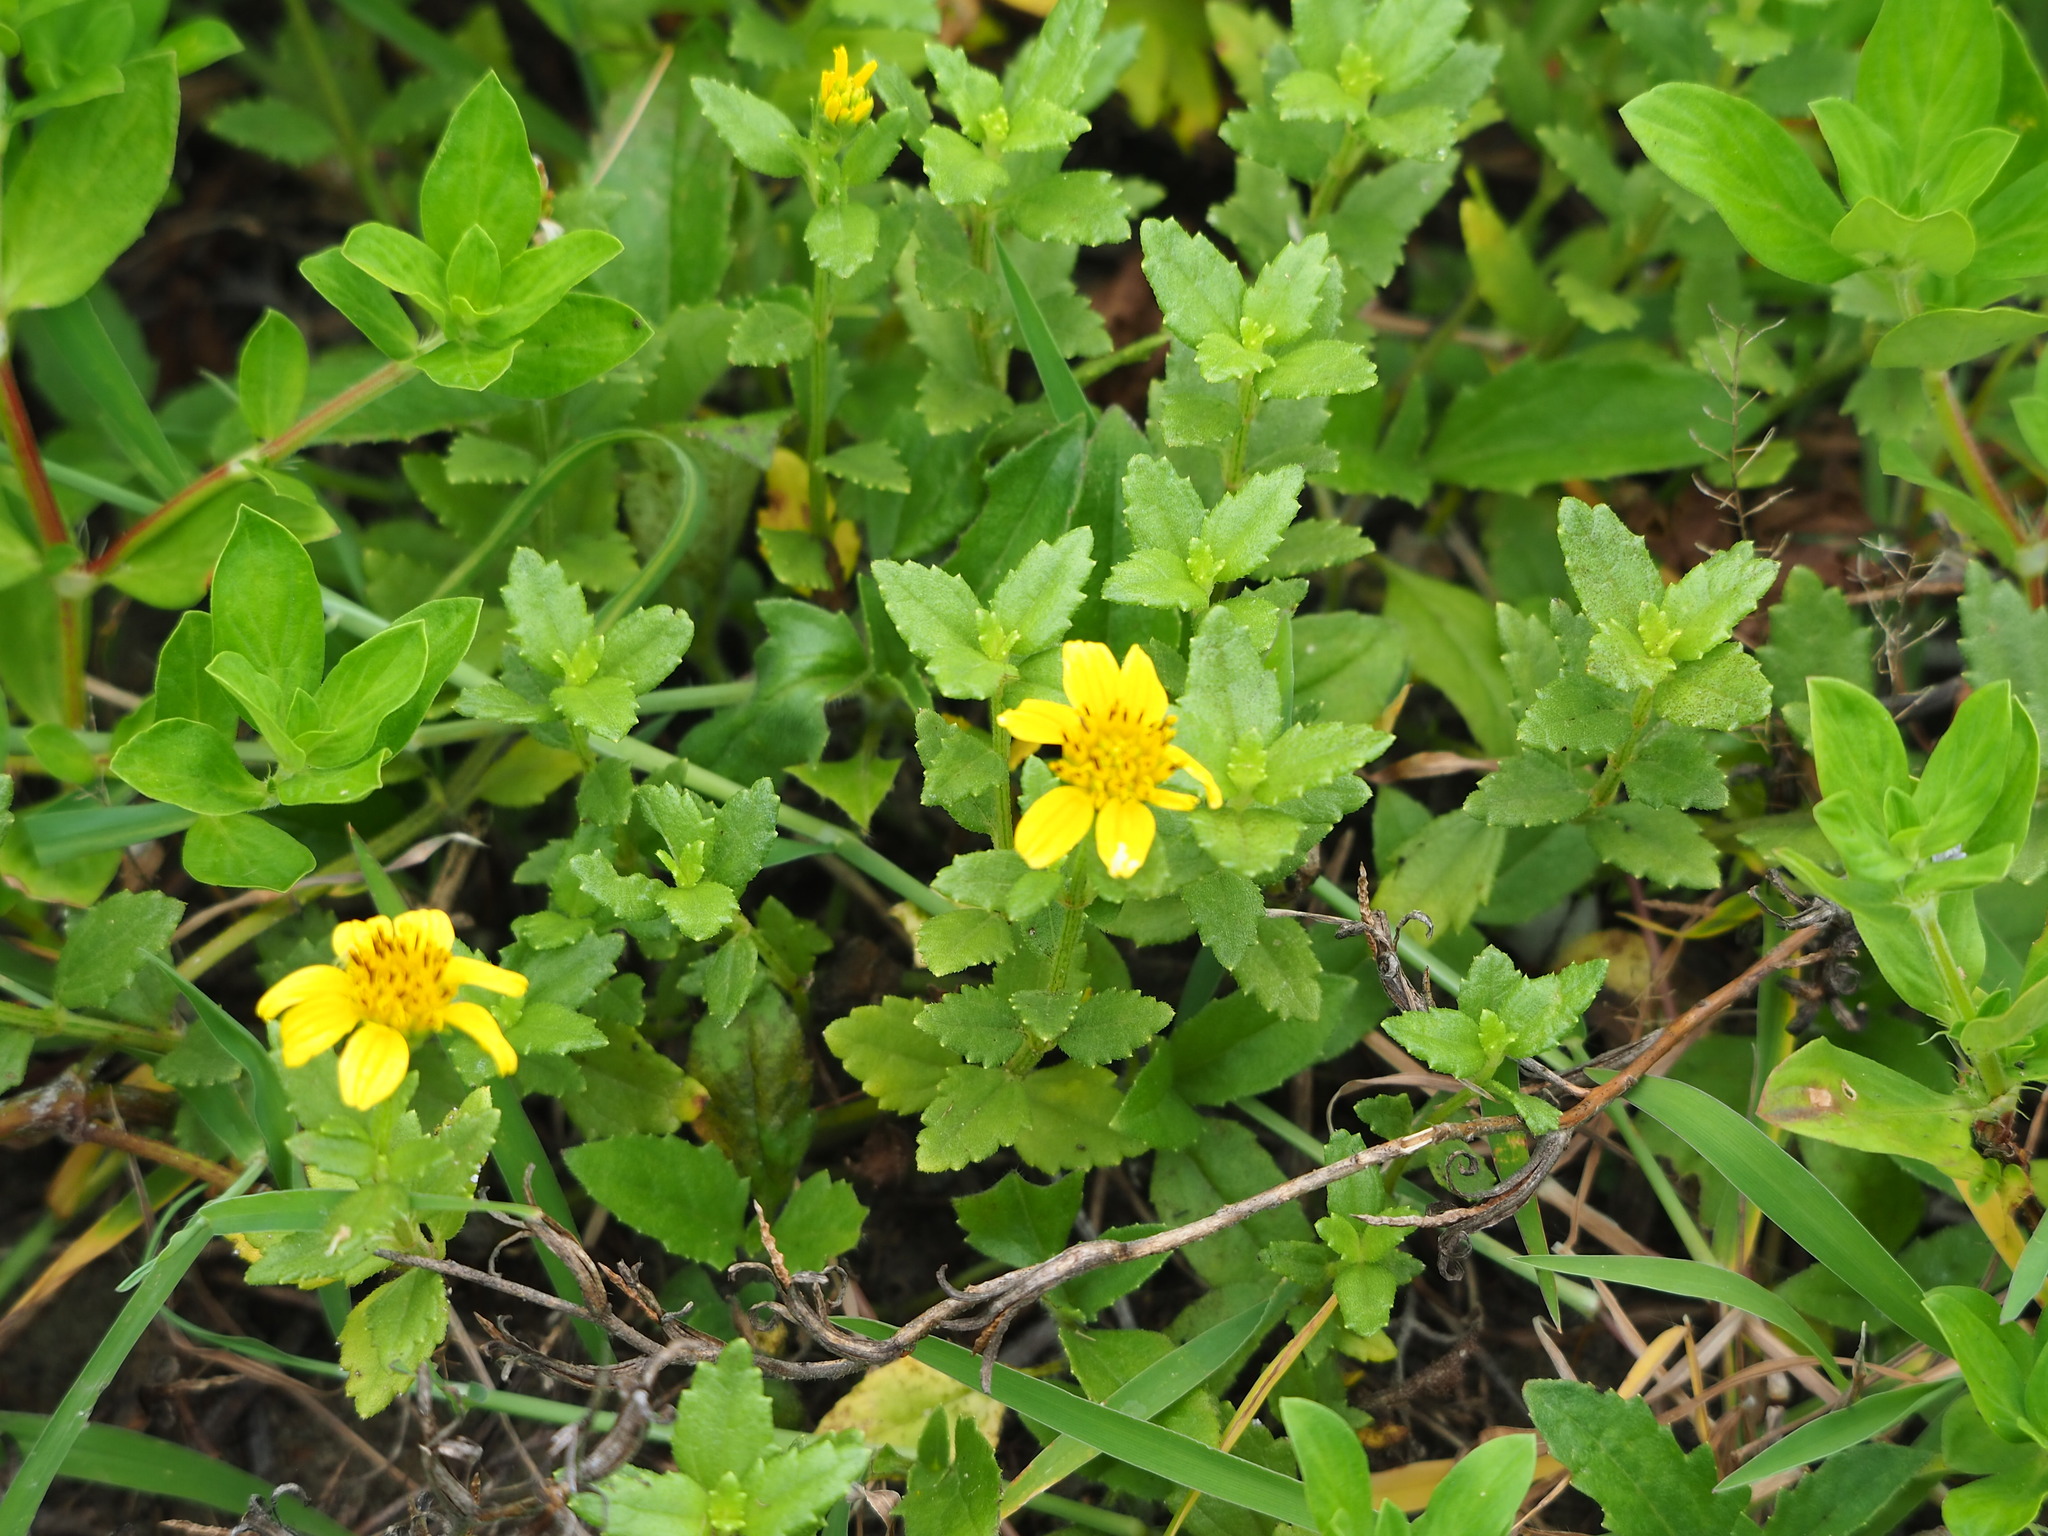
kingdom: Plantae
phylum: Tracheophyta
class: Magnoliopsida
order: Asterales
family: Asteraceae
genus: Melanthera
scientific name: Melanthera prostrata
